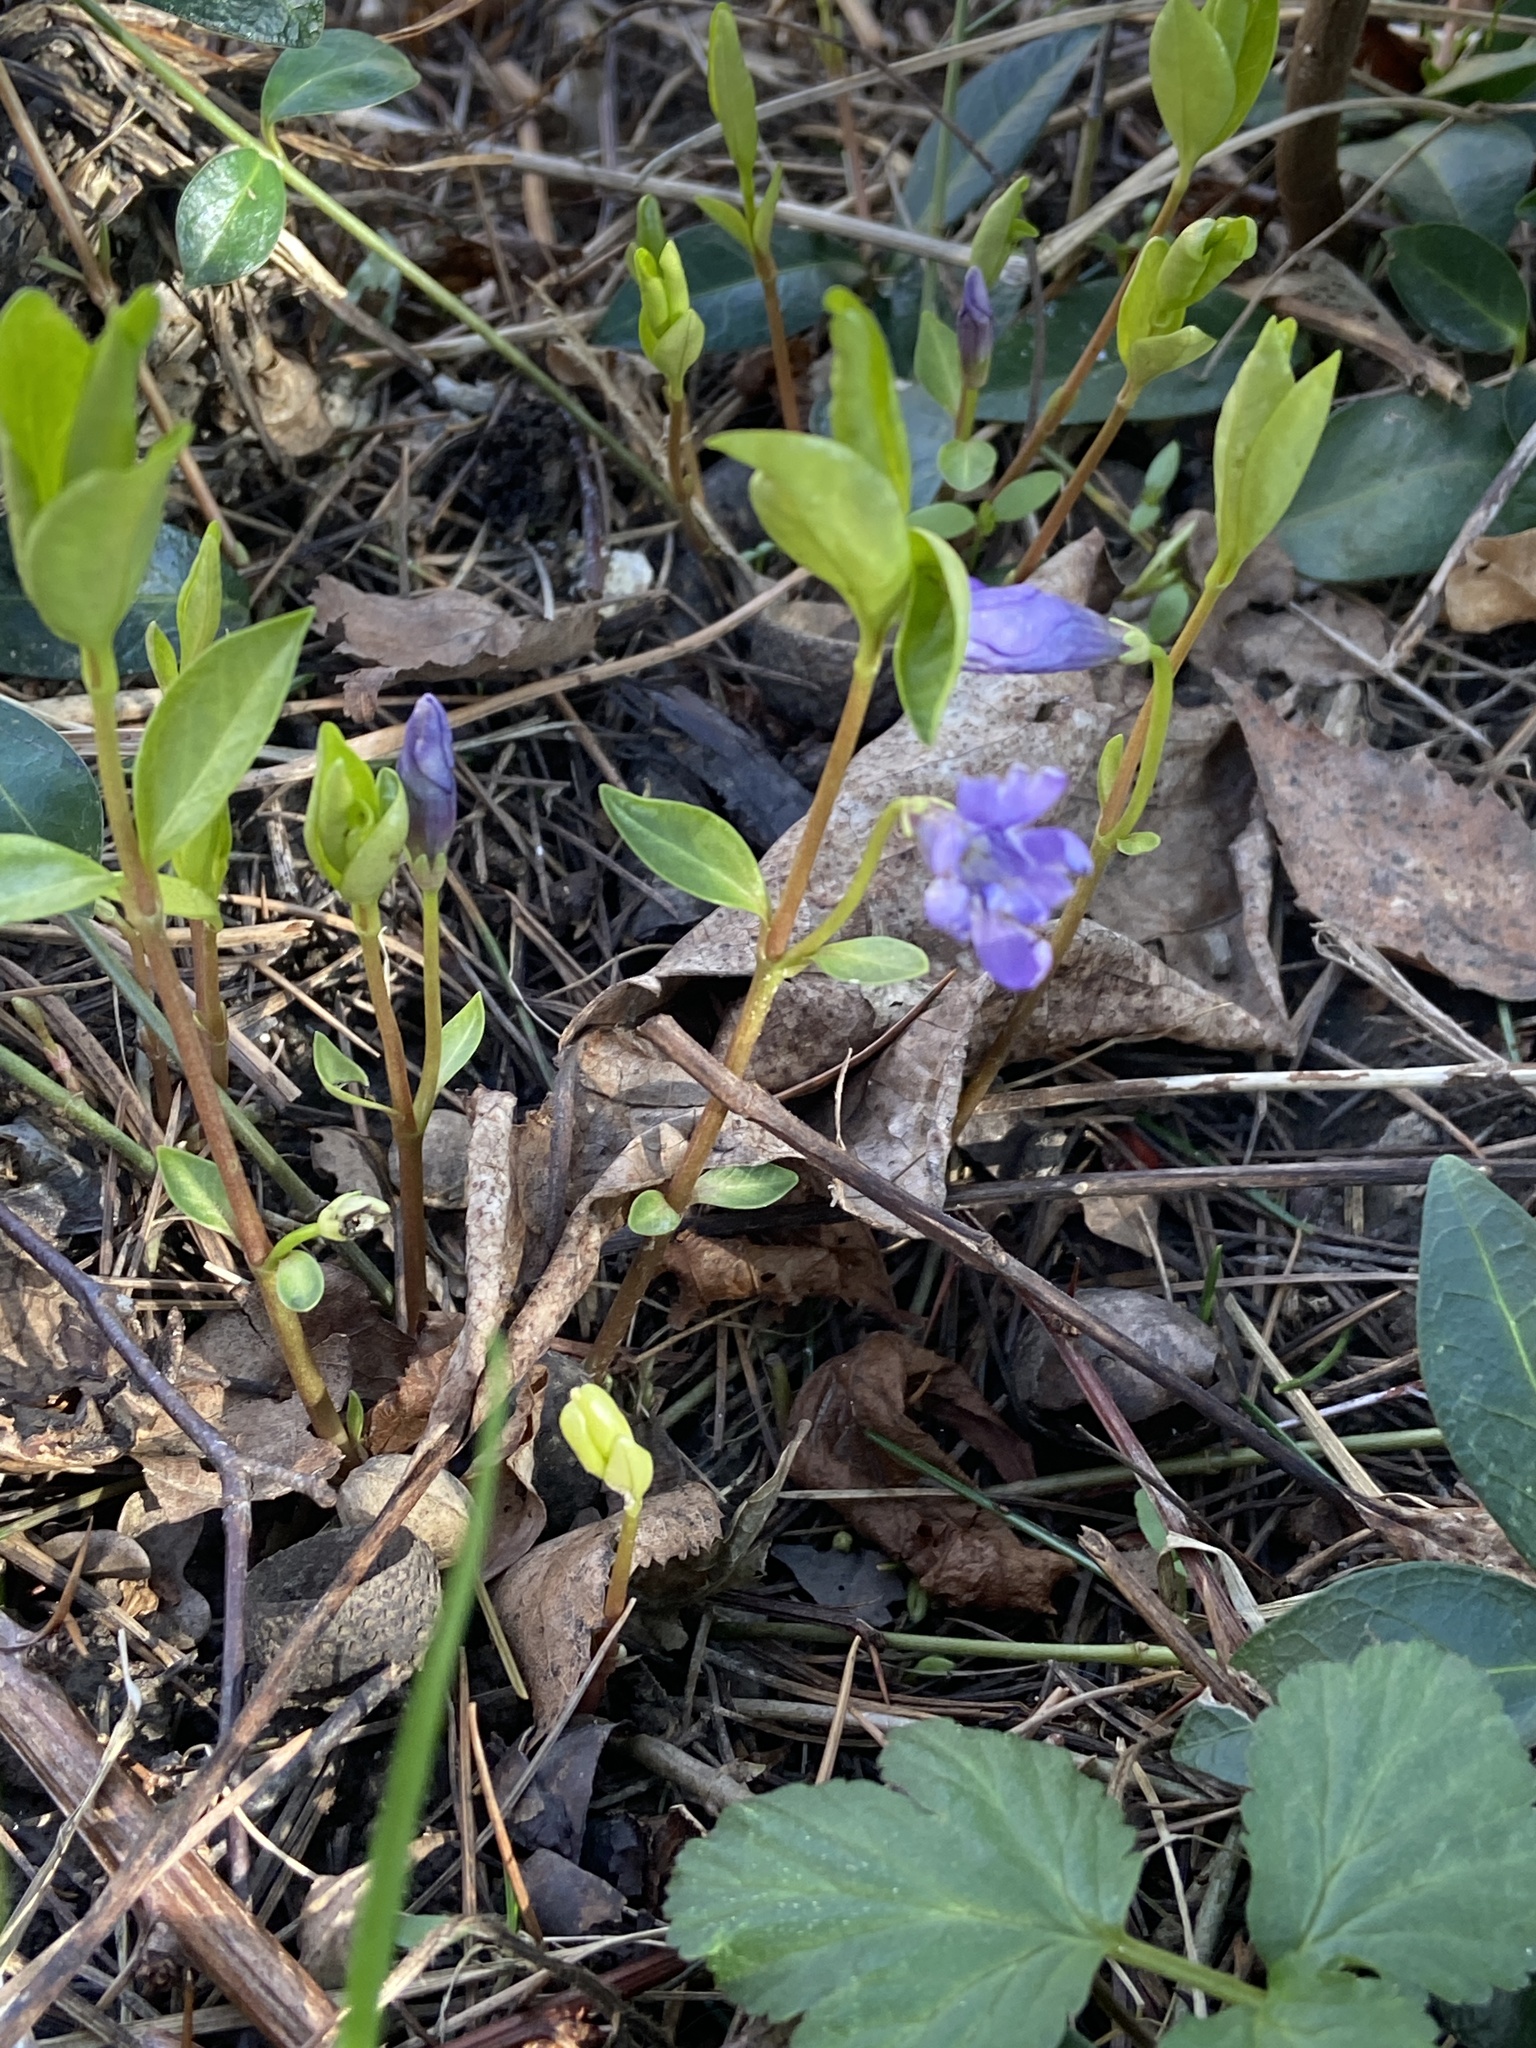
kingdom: Plantae
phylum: Tracheophyta
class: Magnoliopsida
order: Gentianales
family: Apocynaceae
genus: Vinca
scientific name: Vinca minor
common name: Lesser periwinkle
